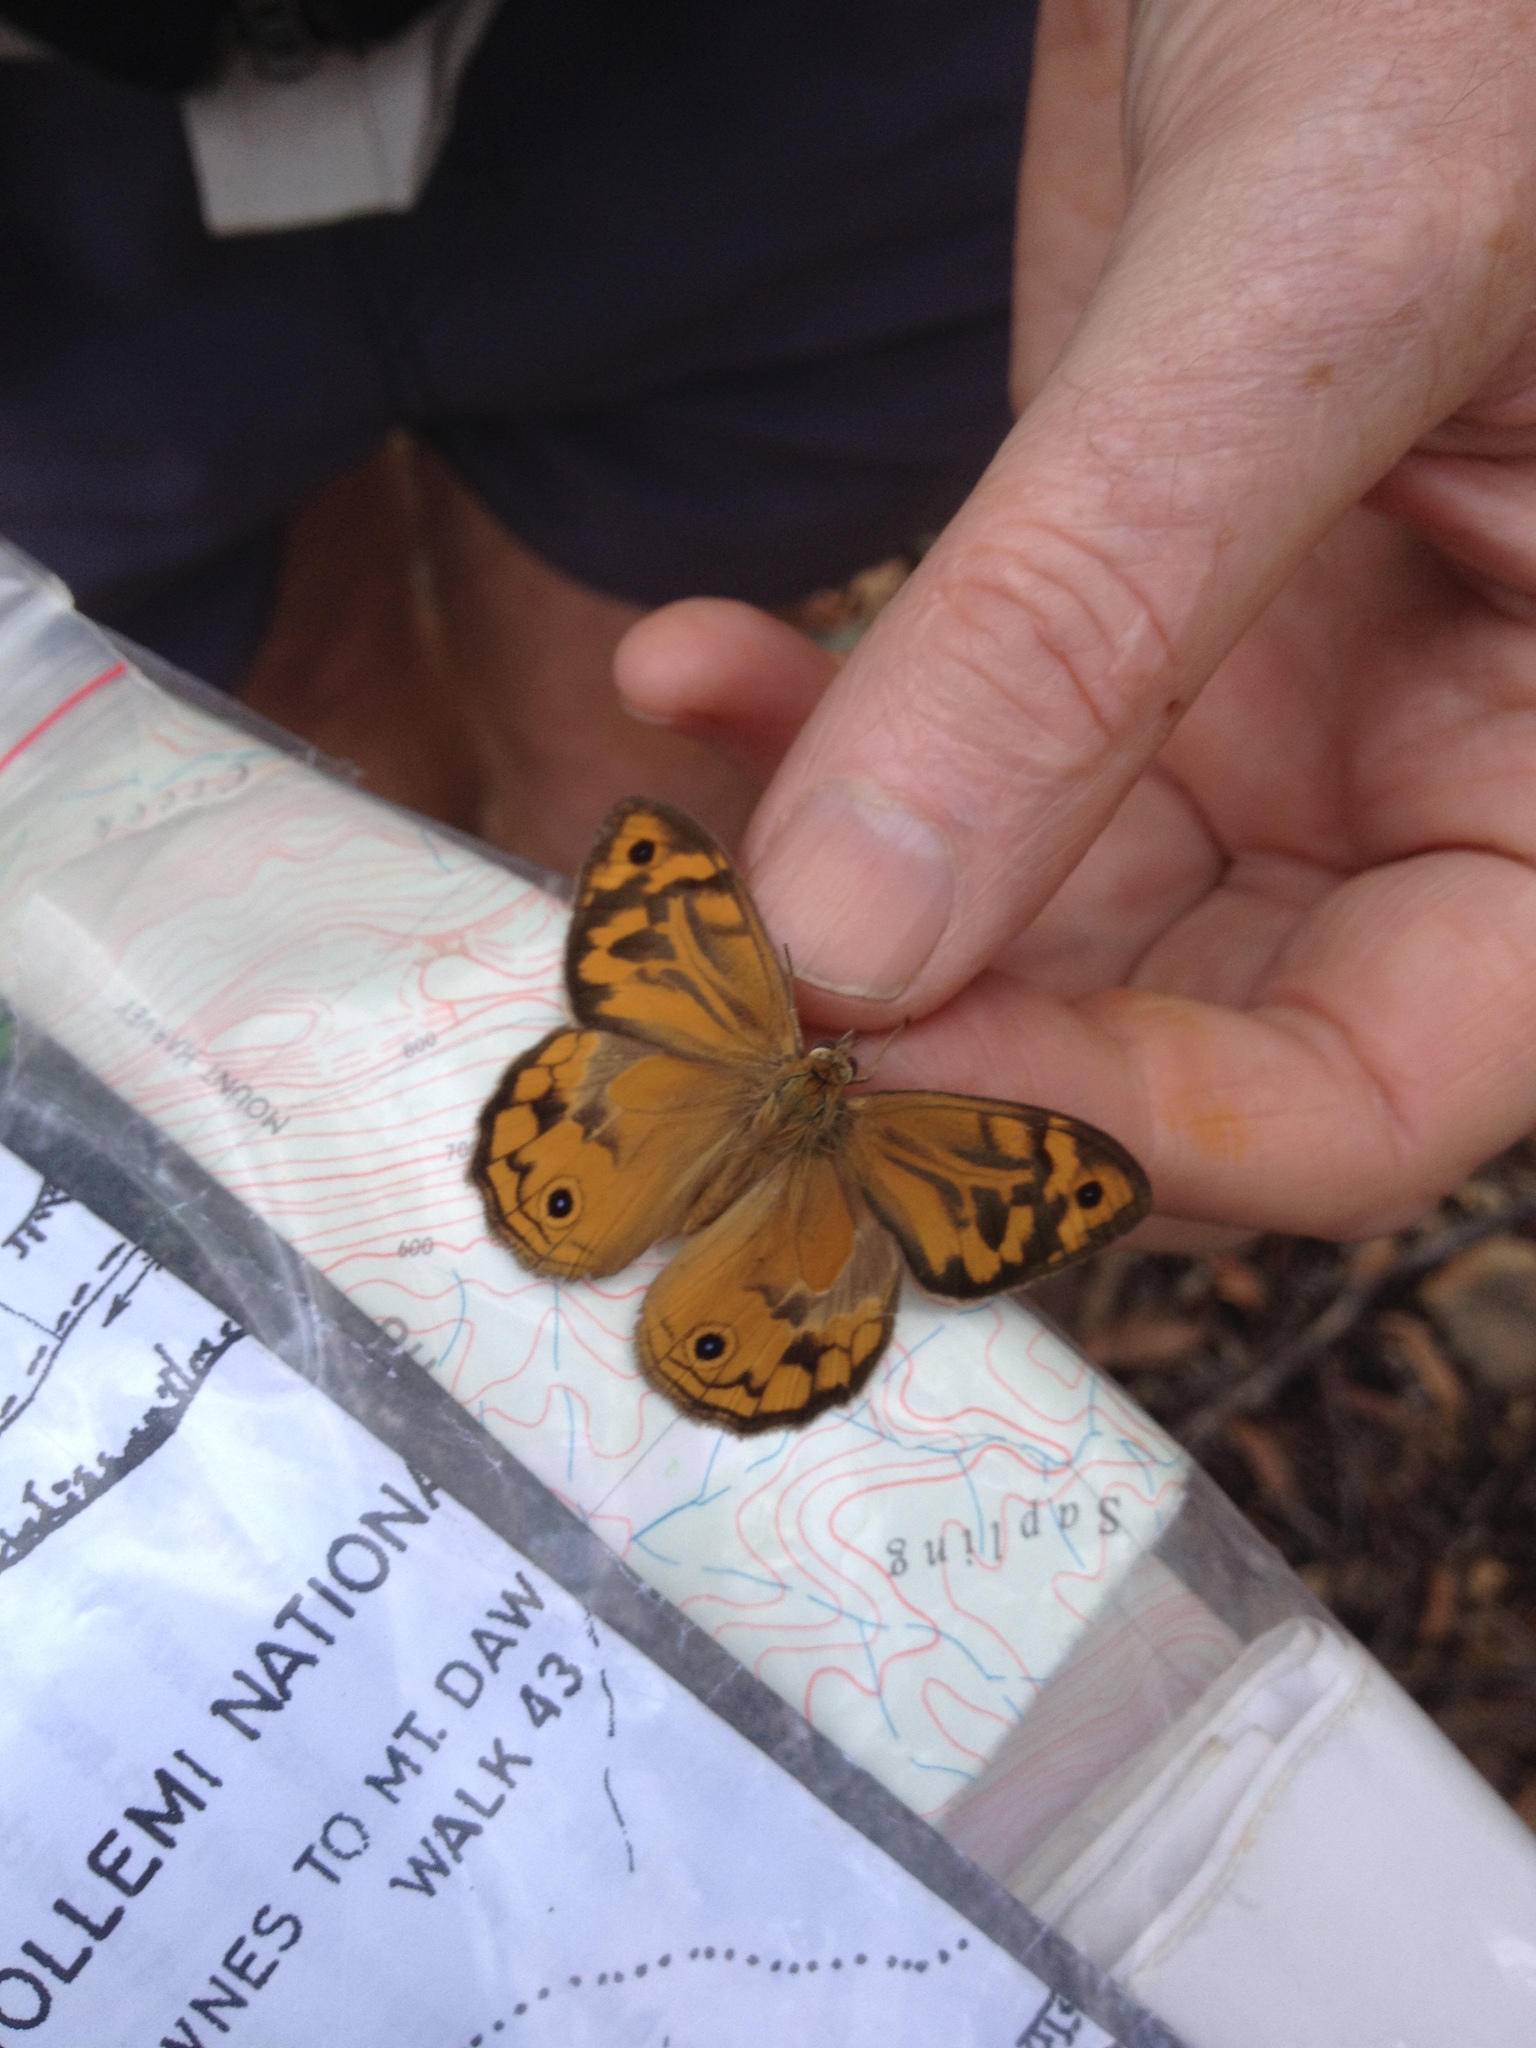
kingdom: Animalia
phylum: Arthropoda
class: Insecta
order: Lepidoptera
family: Nymphalidae
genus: Heteronympha
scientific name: Heteronympha merope
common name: Common brown
